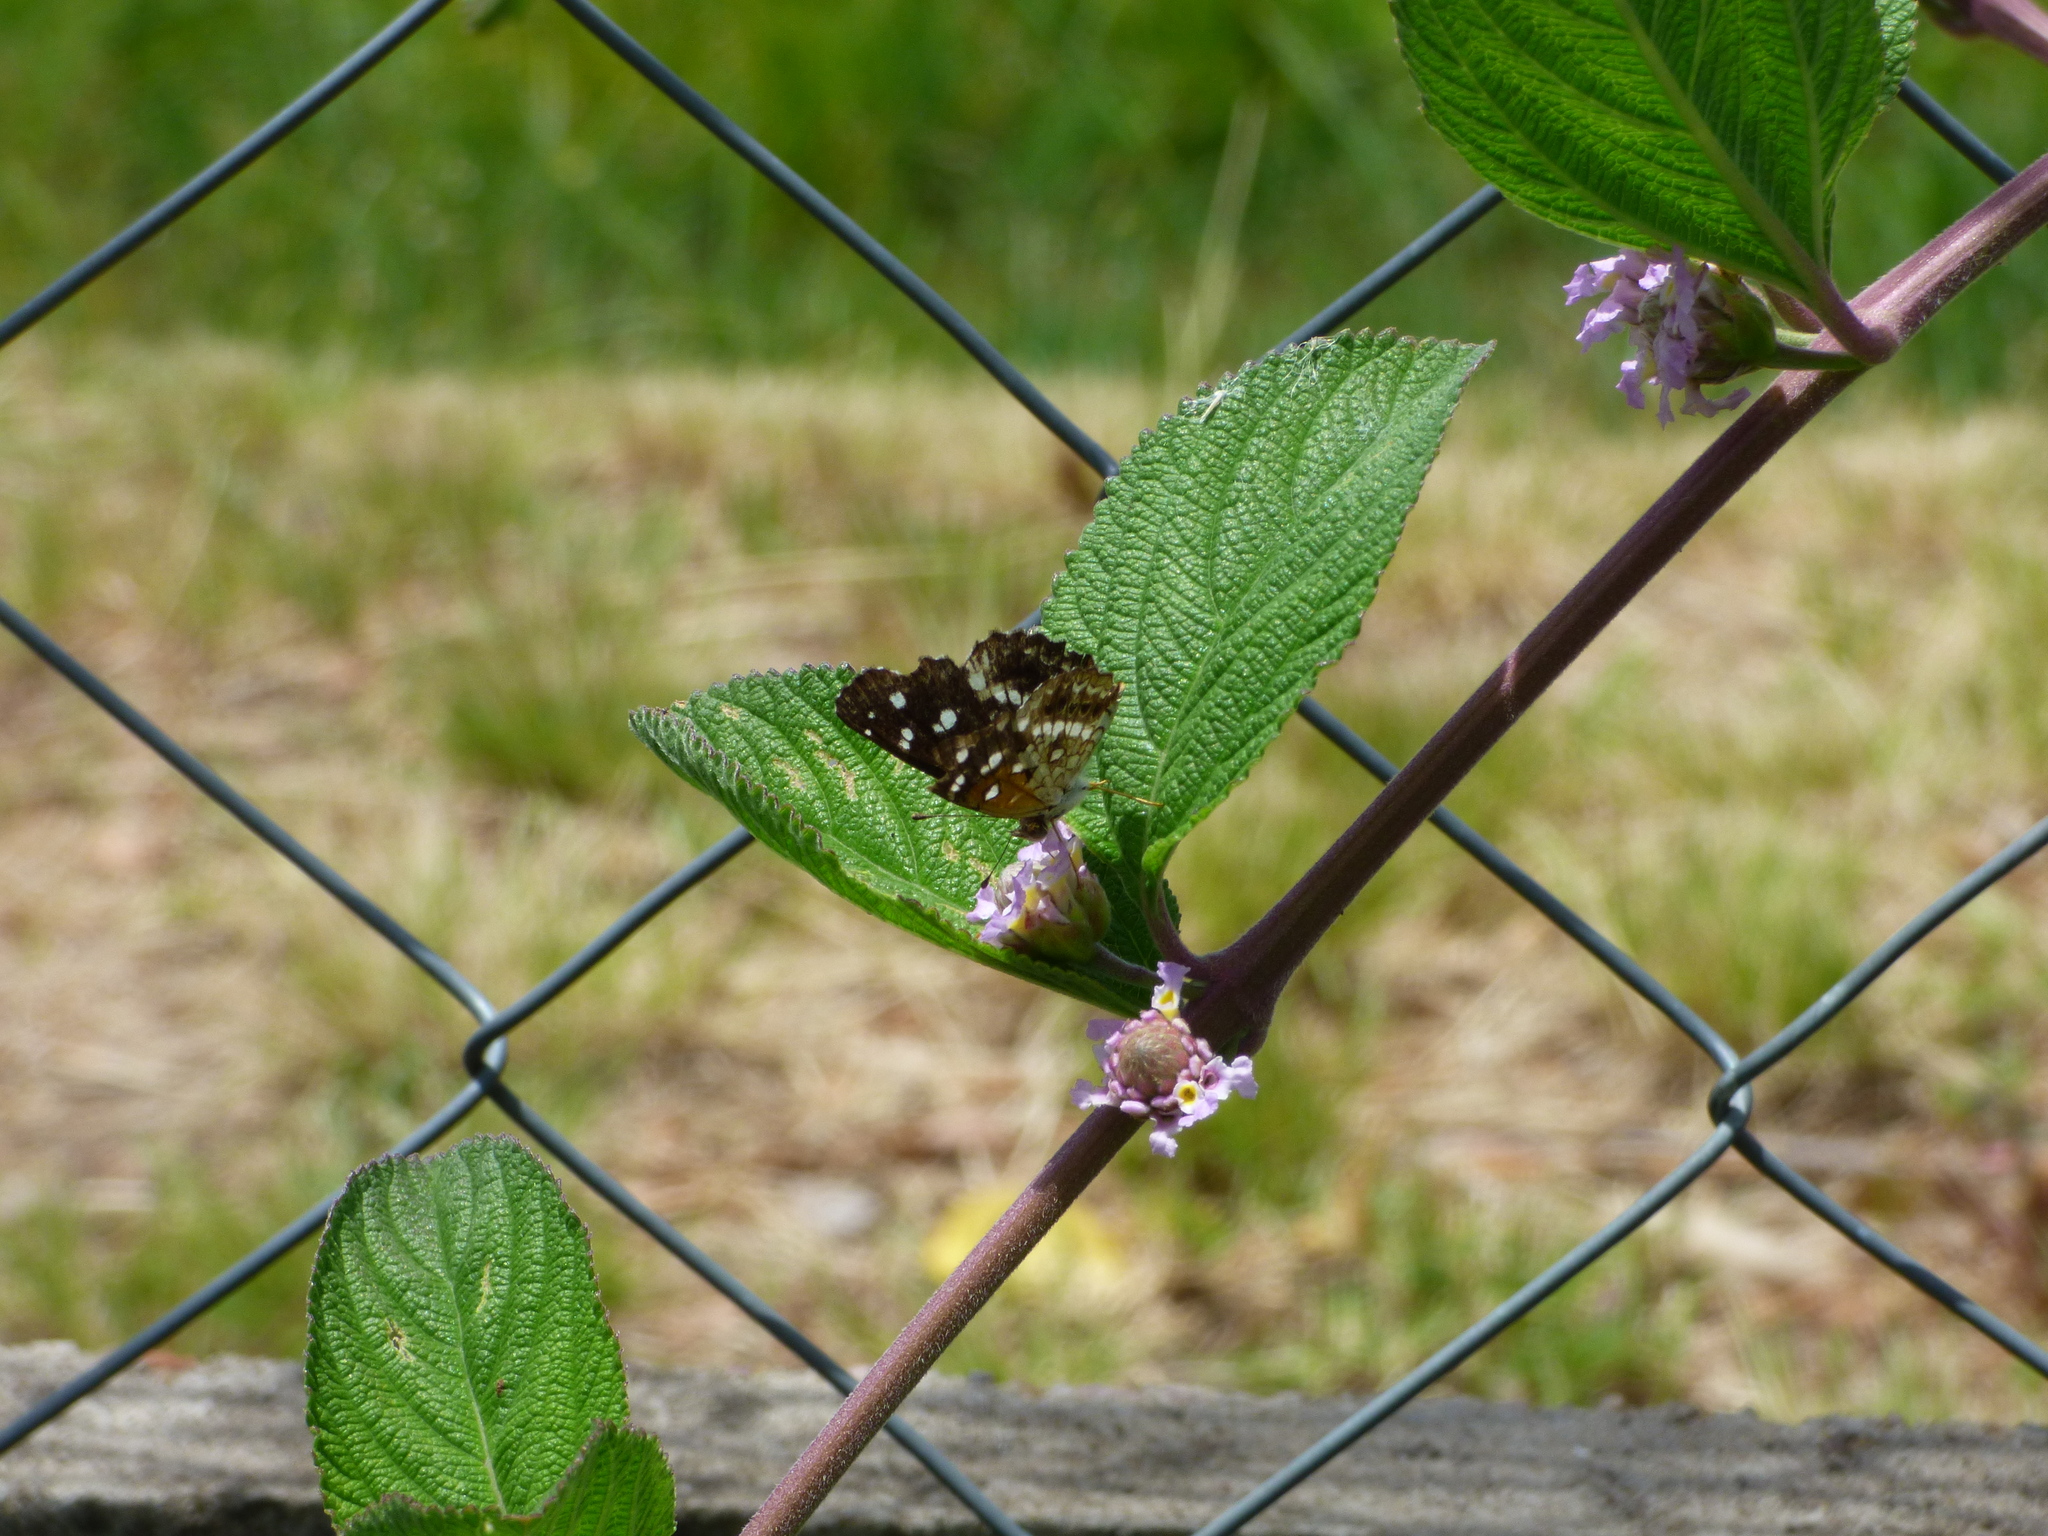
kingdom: Animalia
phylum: Arthropoda
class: Insecta
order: Lepidoptera
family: Nymphalidae
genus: Ortilia
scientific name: Ortilia ithra
